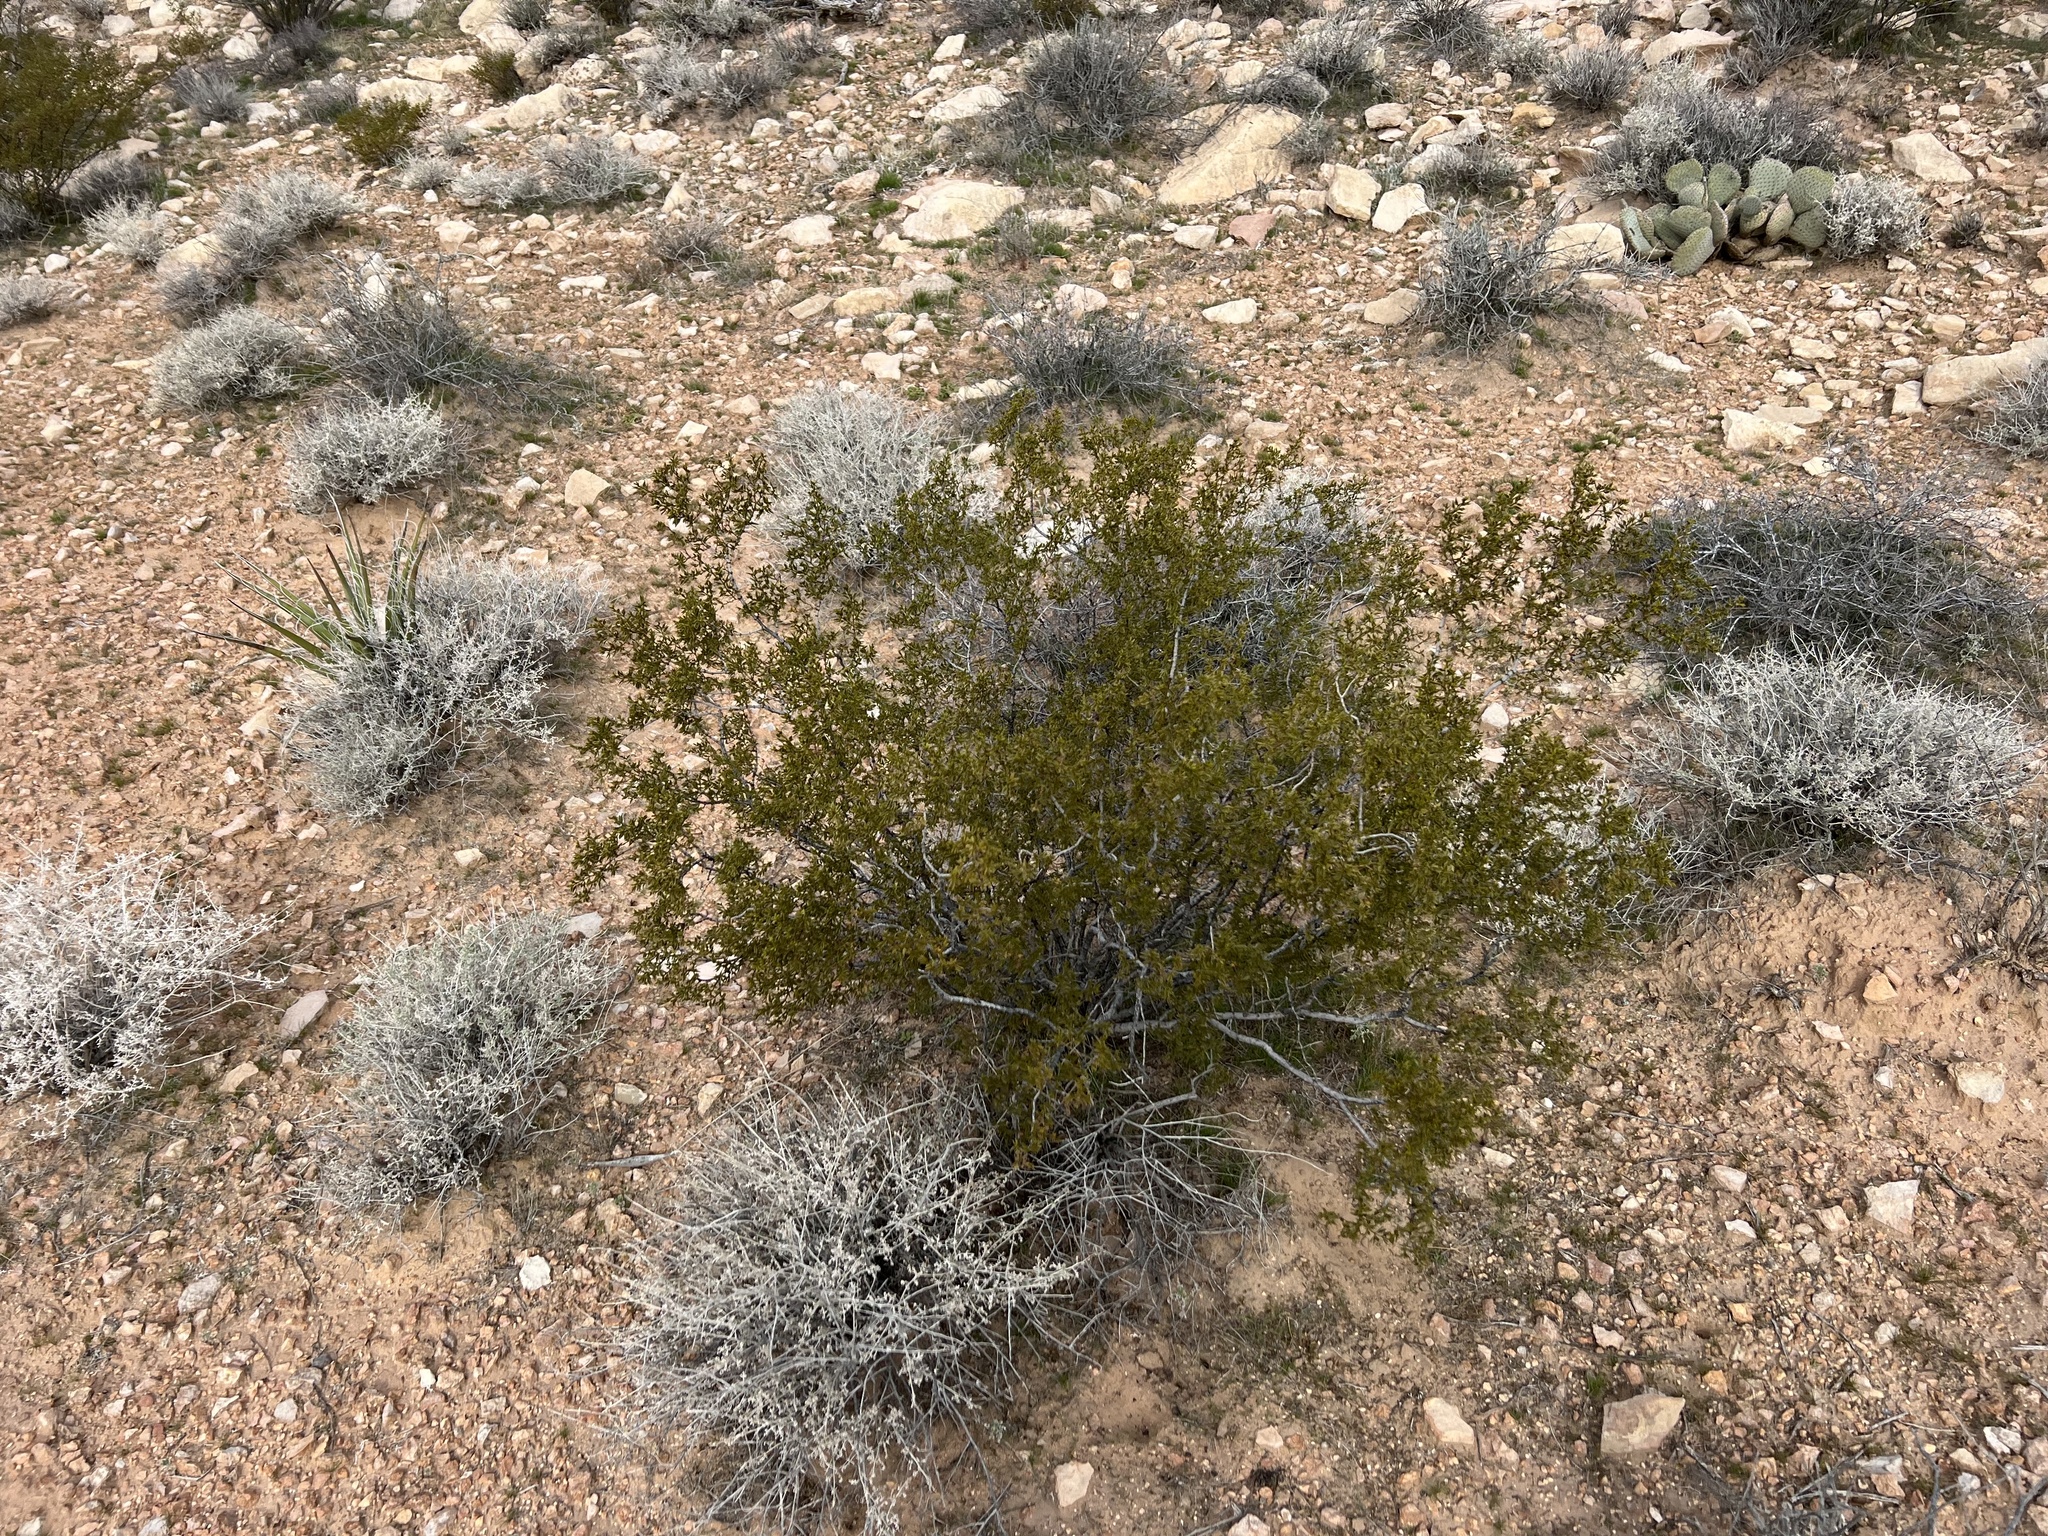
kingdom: Plantae
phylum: Tracheophyta
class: Magnoliopsida
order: Zygophyllales
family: Zygophyllaceae
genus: Larrea
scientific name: Larrea tridentata
